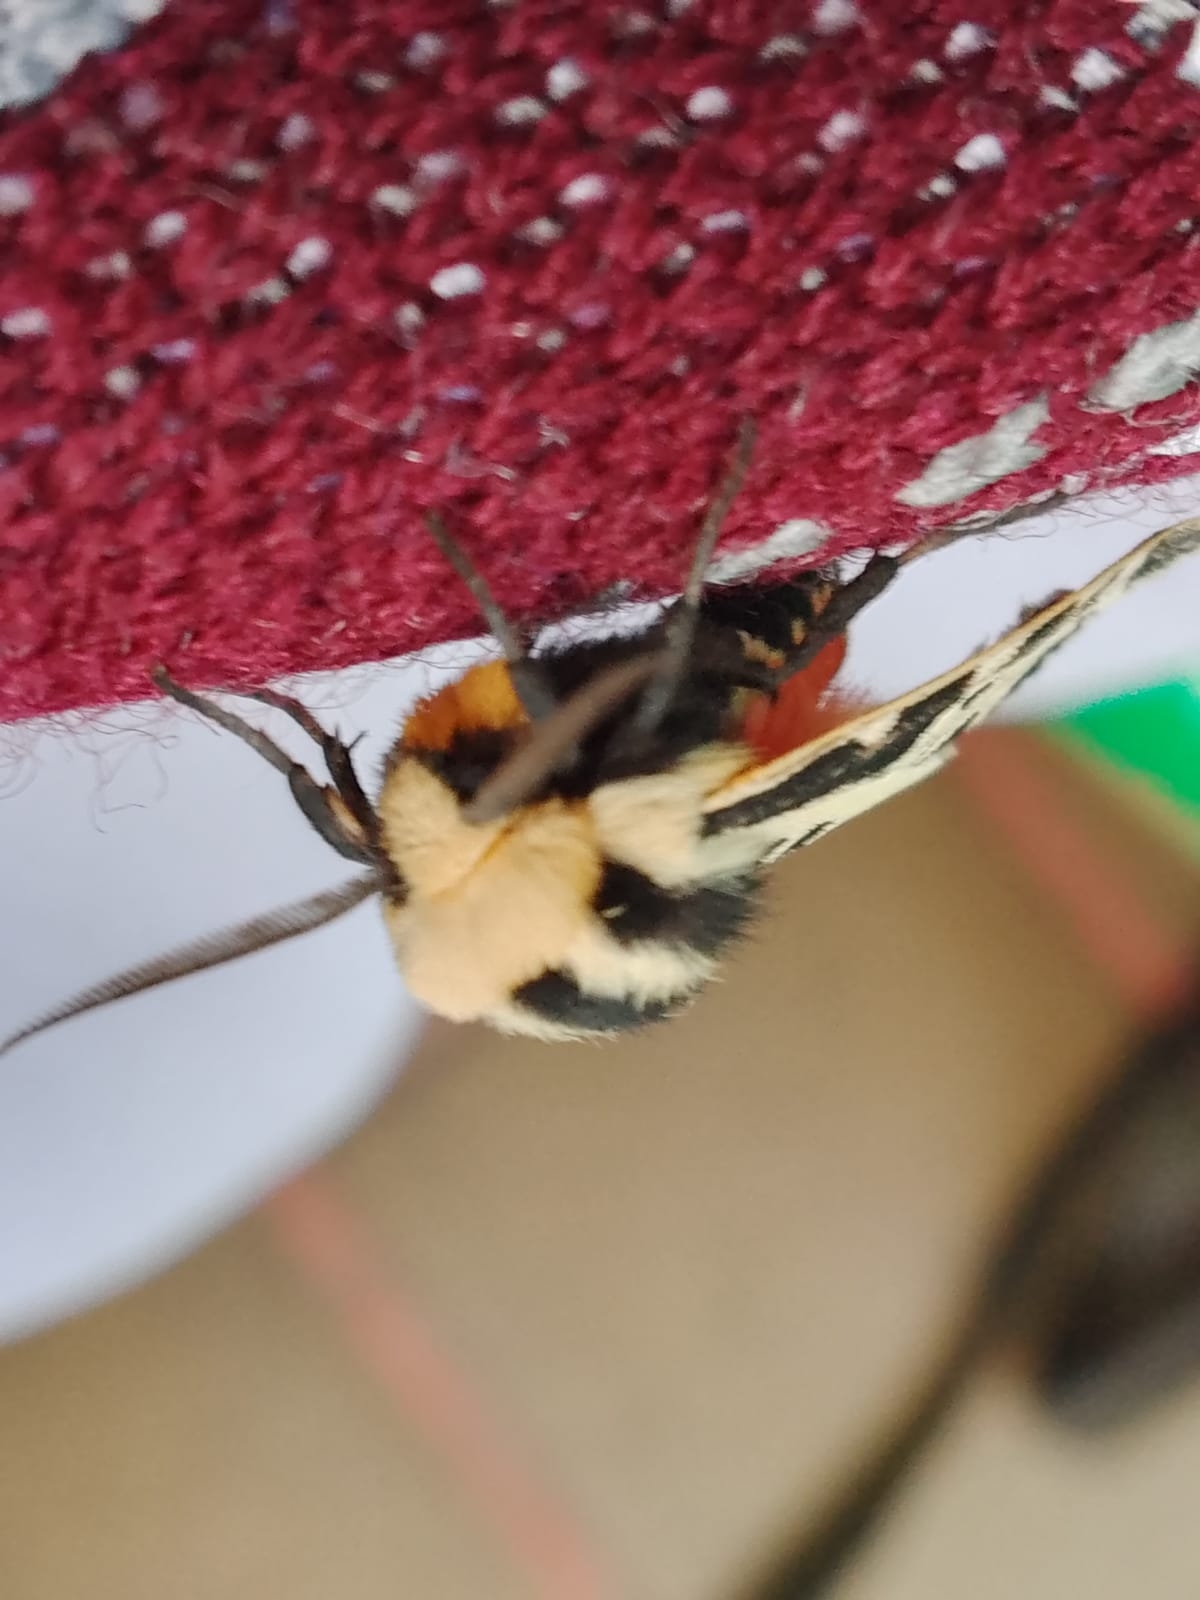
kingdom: Animalia
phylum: Arthropoda
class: Insecta
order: Lepidoptera
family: Erebidae
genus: Apantesis
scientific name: Apantesis
